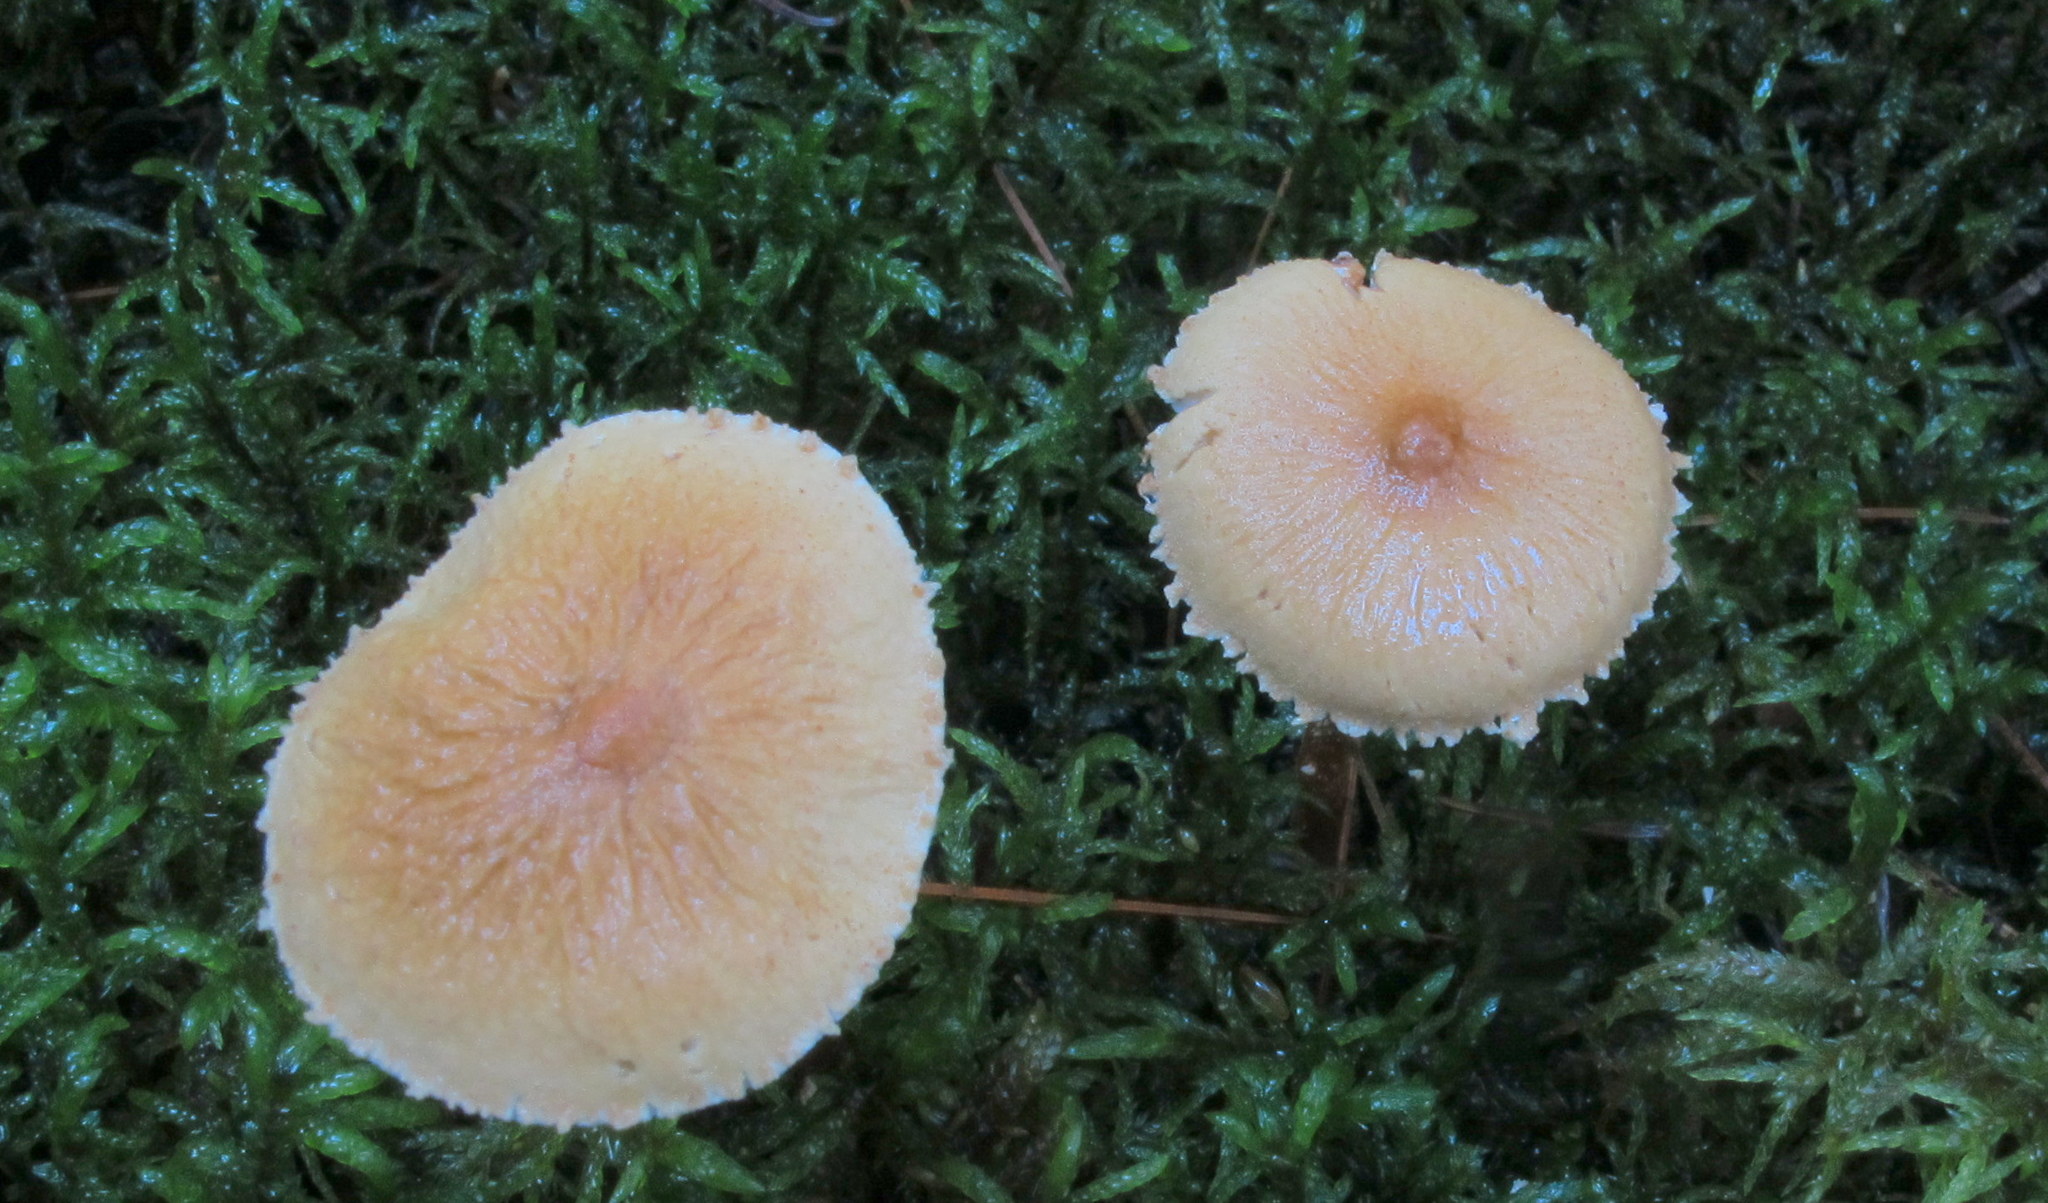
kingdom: Fungi
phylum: Basidiomycota
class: Agaricomycetes
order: Agaricales
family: Tricholomataceae
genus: Cystoderma
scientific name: Cystoderma amianthinum
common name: Earthy powdercap
